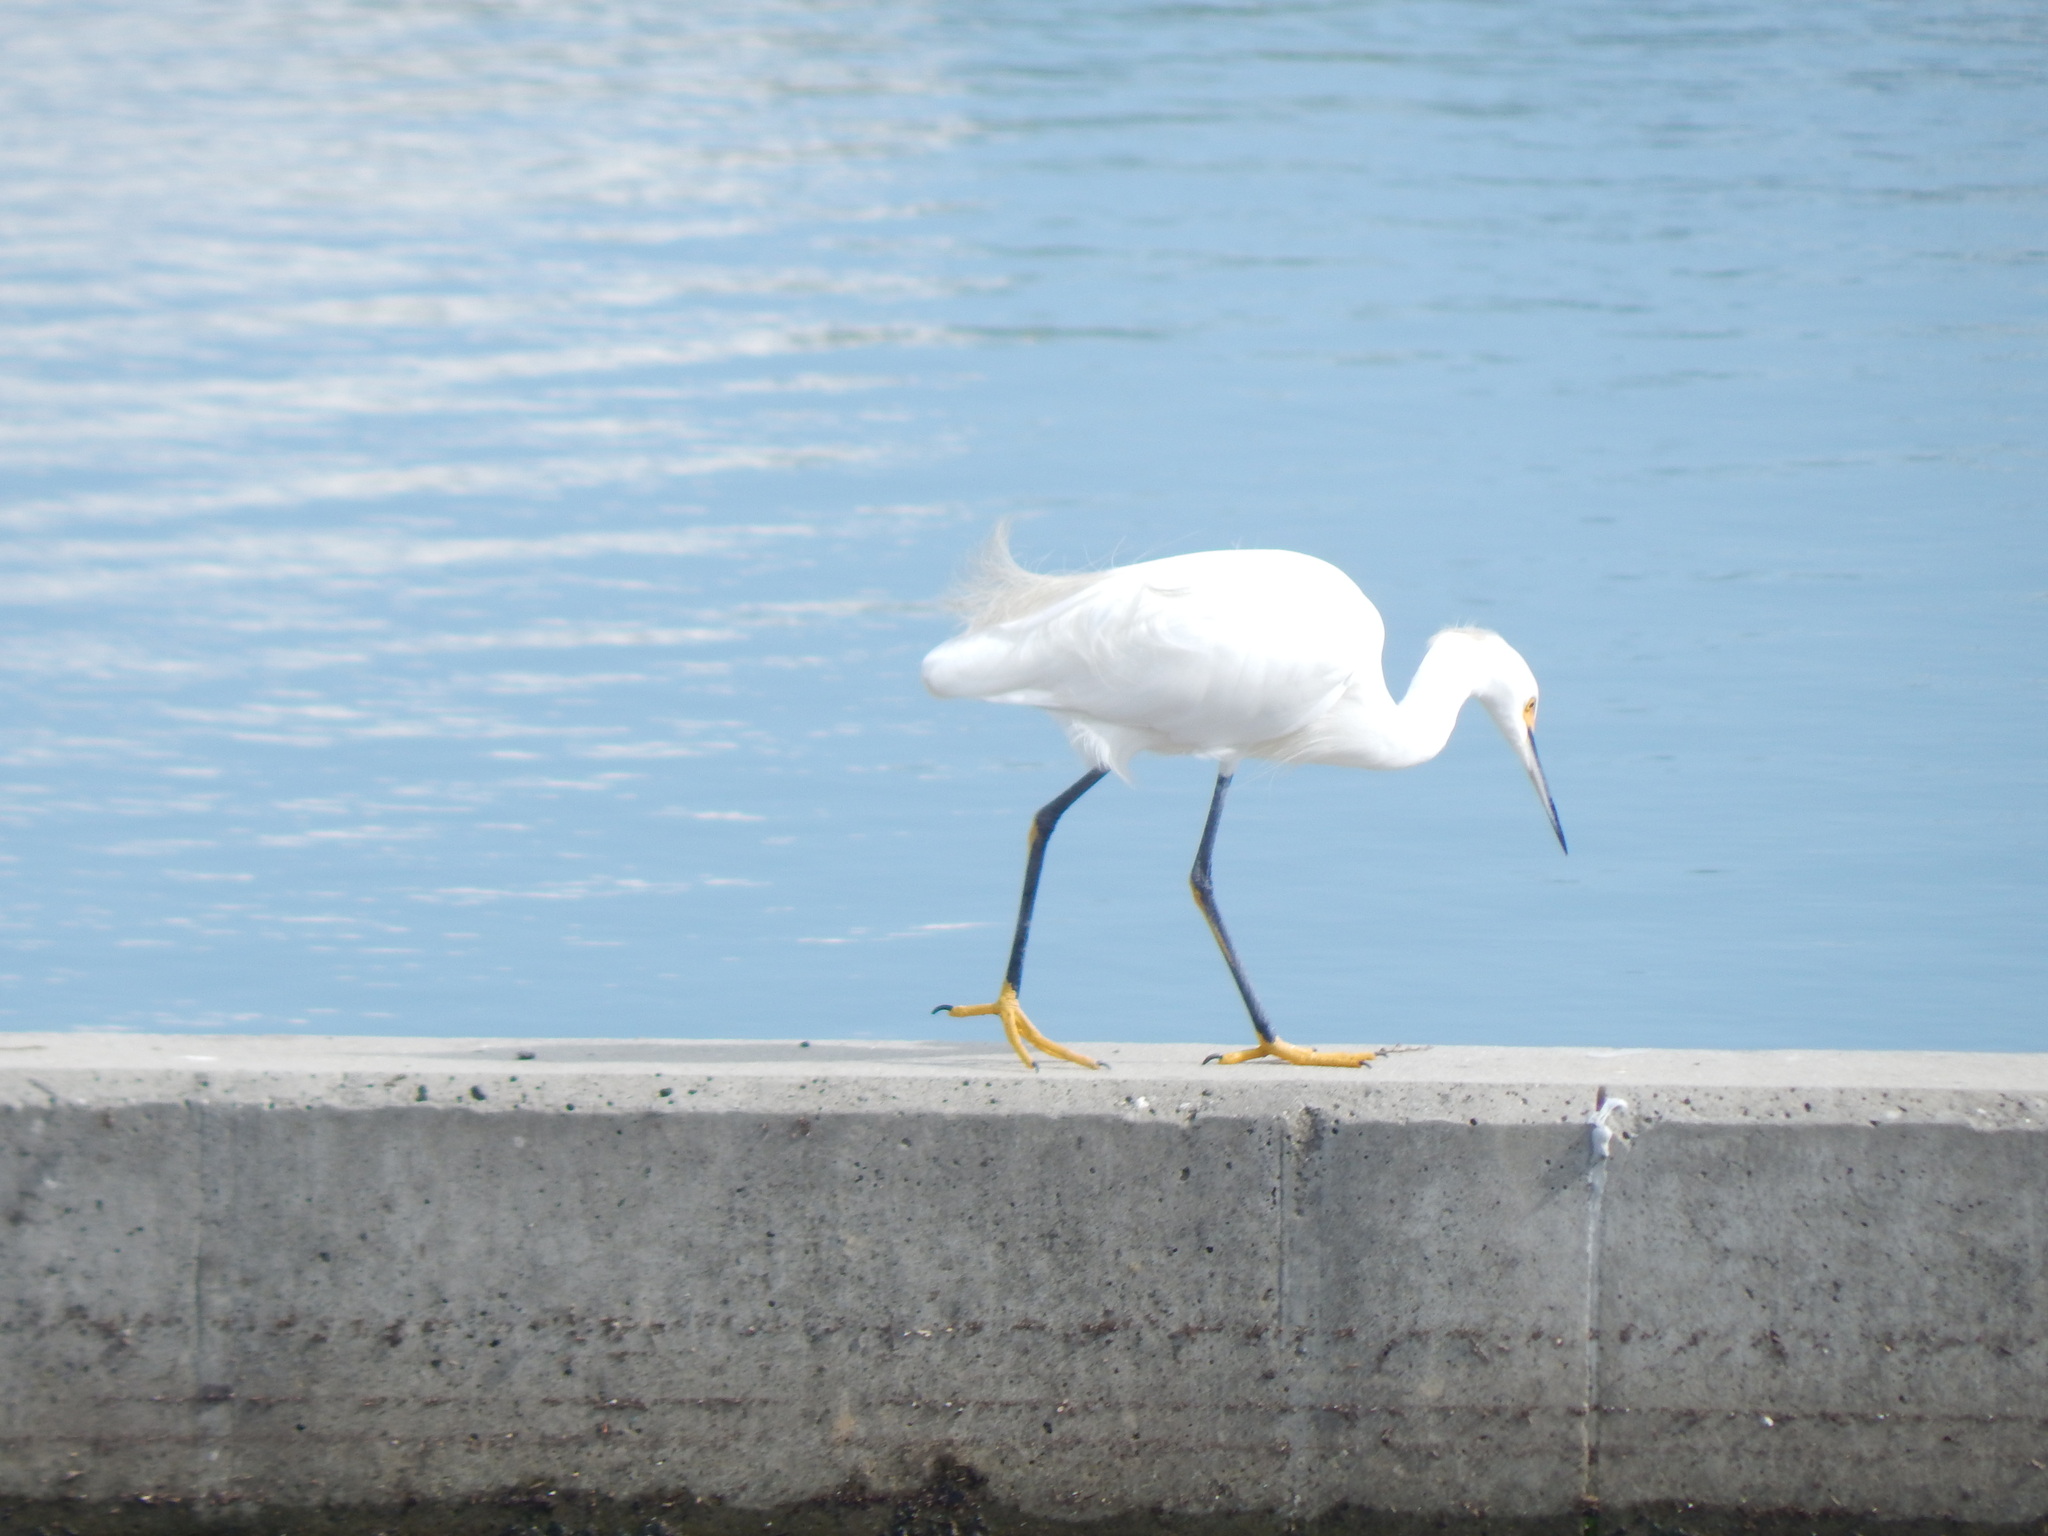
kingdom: Animalia
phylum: Chordata
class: Aves
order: Pelecaniformes
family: Ardeidae
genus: Egretta
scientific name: Egretta thula
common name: Snowy egret
